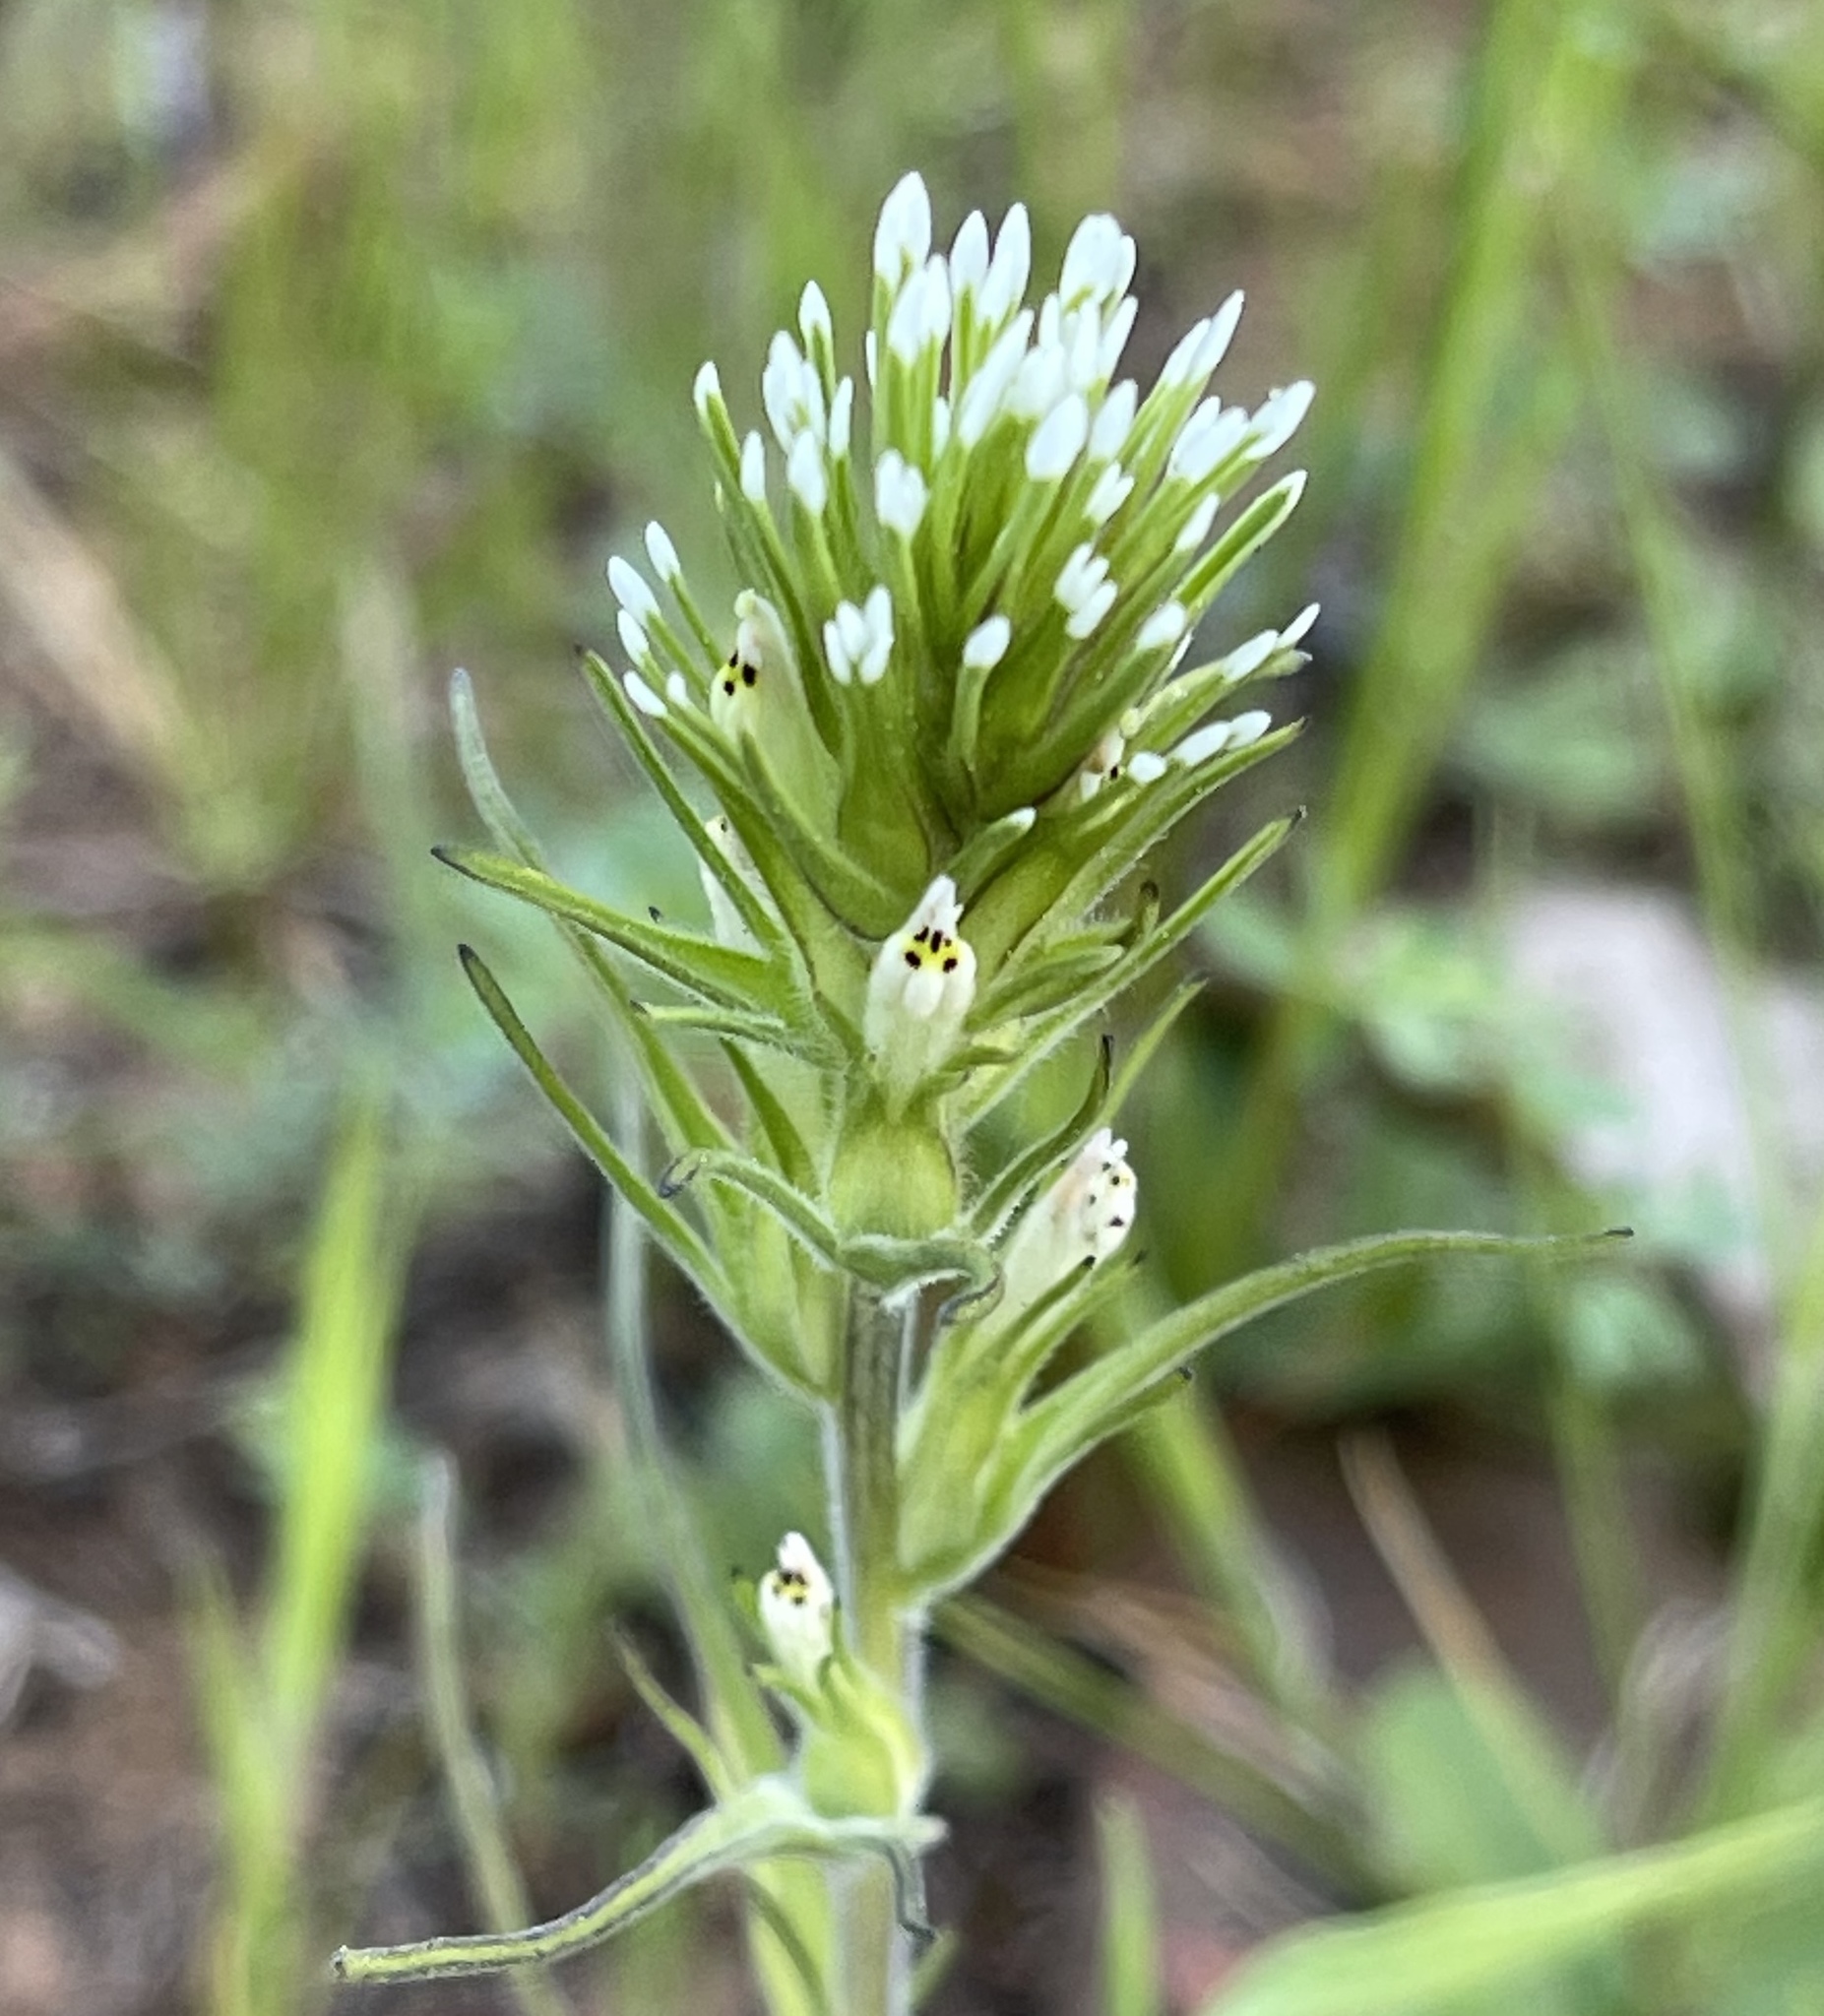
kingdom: Plantae
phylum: Tracheophyta
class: Magnoliopsida
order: Lamiales
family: Orobanchaceae
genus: Castilleja
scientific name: Castilleja attenuata
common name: Valley tassels
